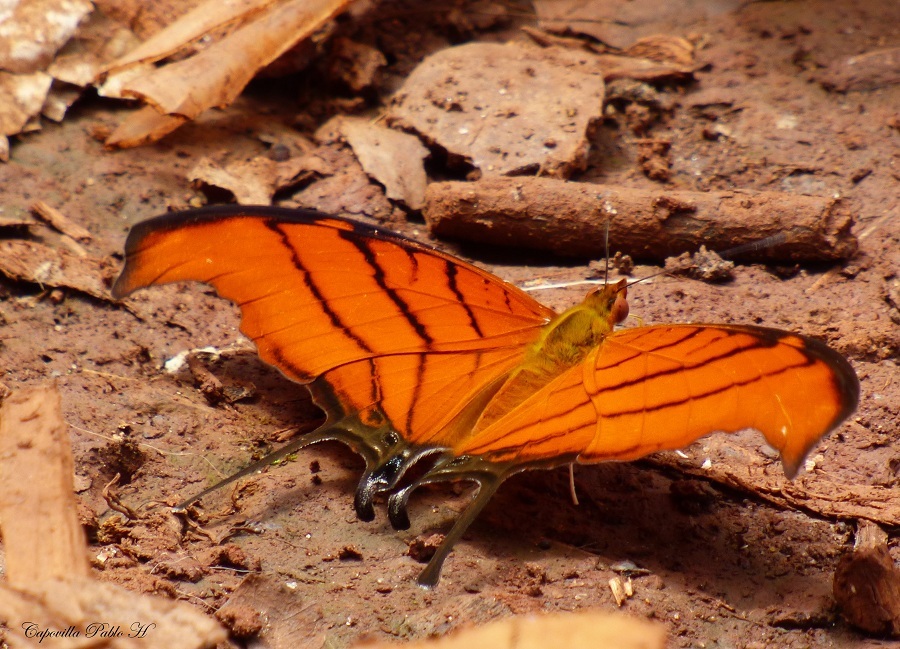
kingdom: Animalia
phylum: Arthropoda
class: Insecta
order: Lepidoptera
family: Nymphalidae
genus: Marpesia
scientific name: Marpesia petreus
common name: Red dagger wing
